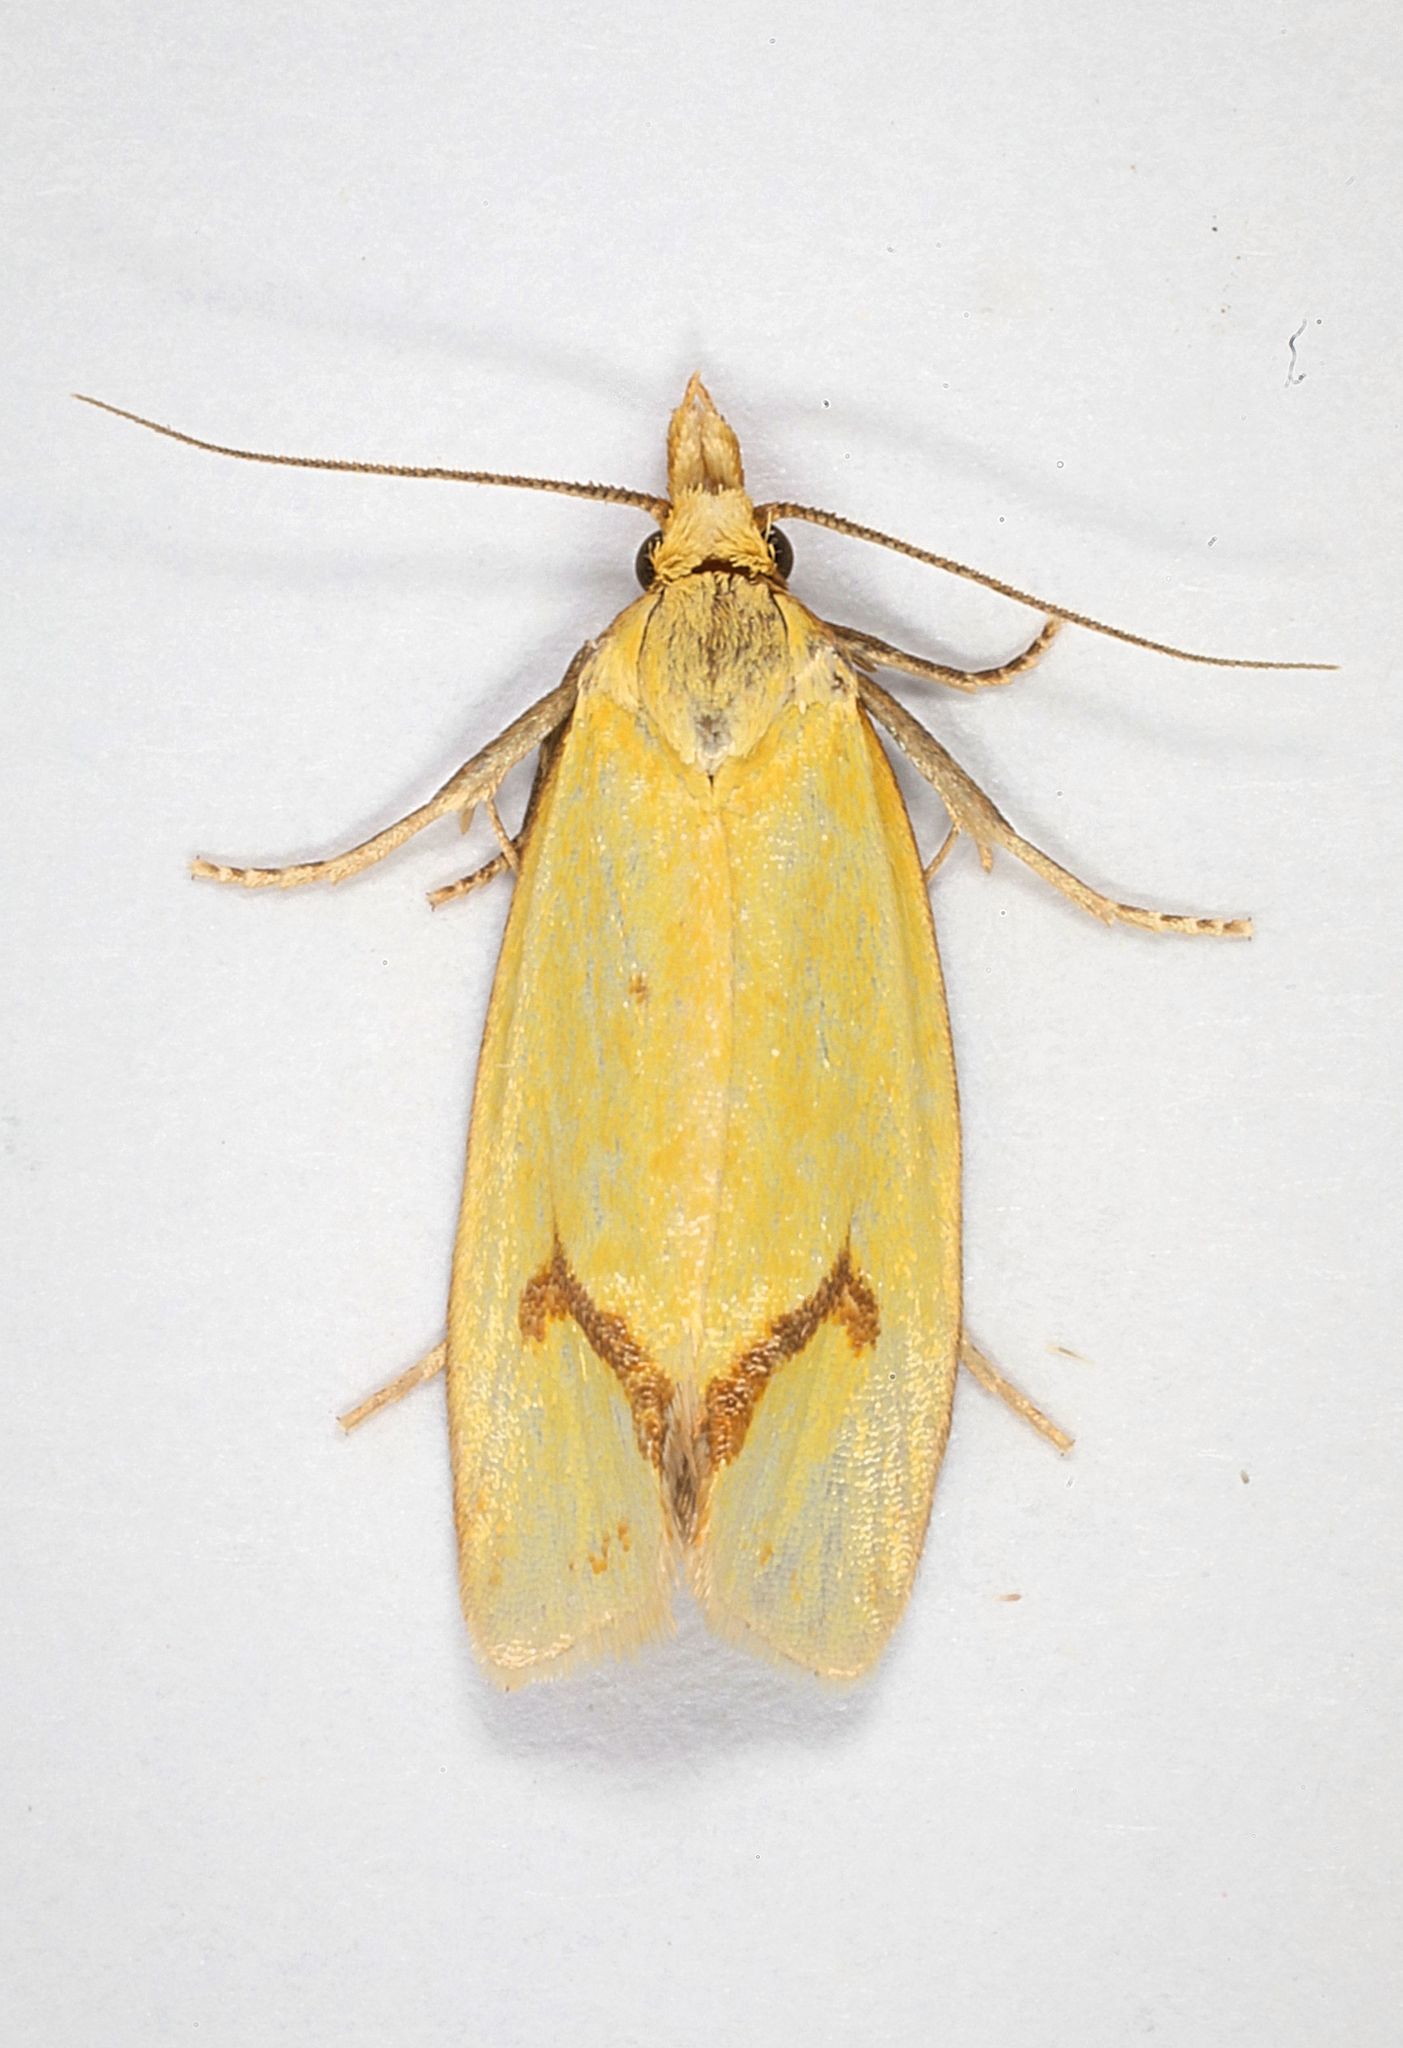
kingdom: Animalia
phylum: Arthropoda
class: Insecta
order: Lepidoptera
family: Tortricidae
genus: Agapeta
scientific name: Agapeta hamana
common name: Common yellow conch
